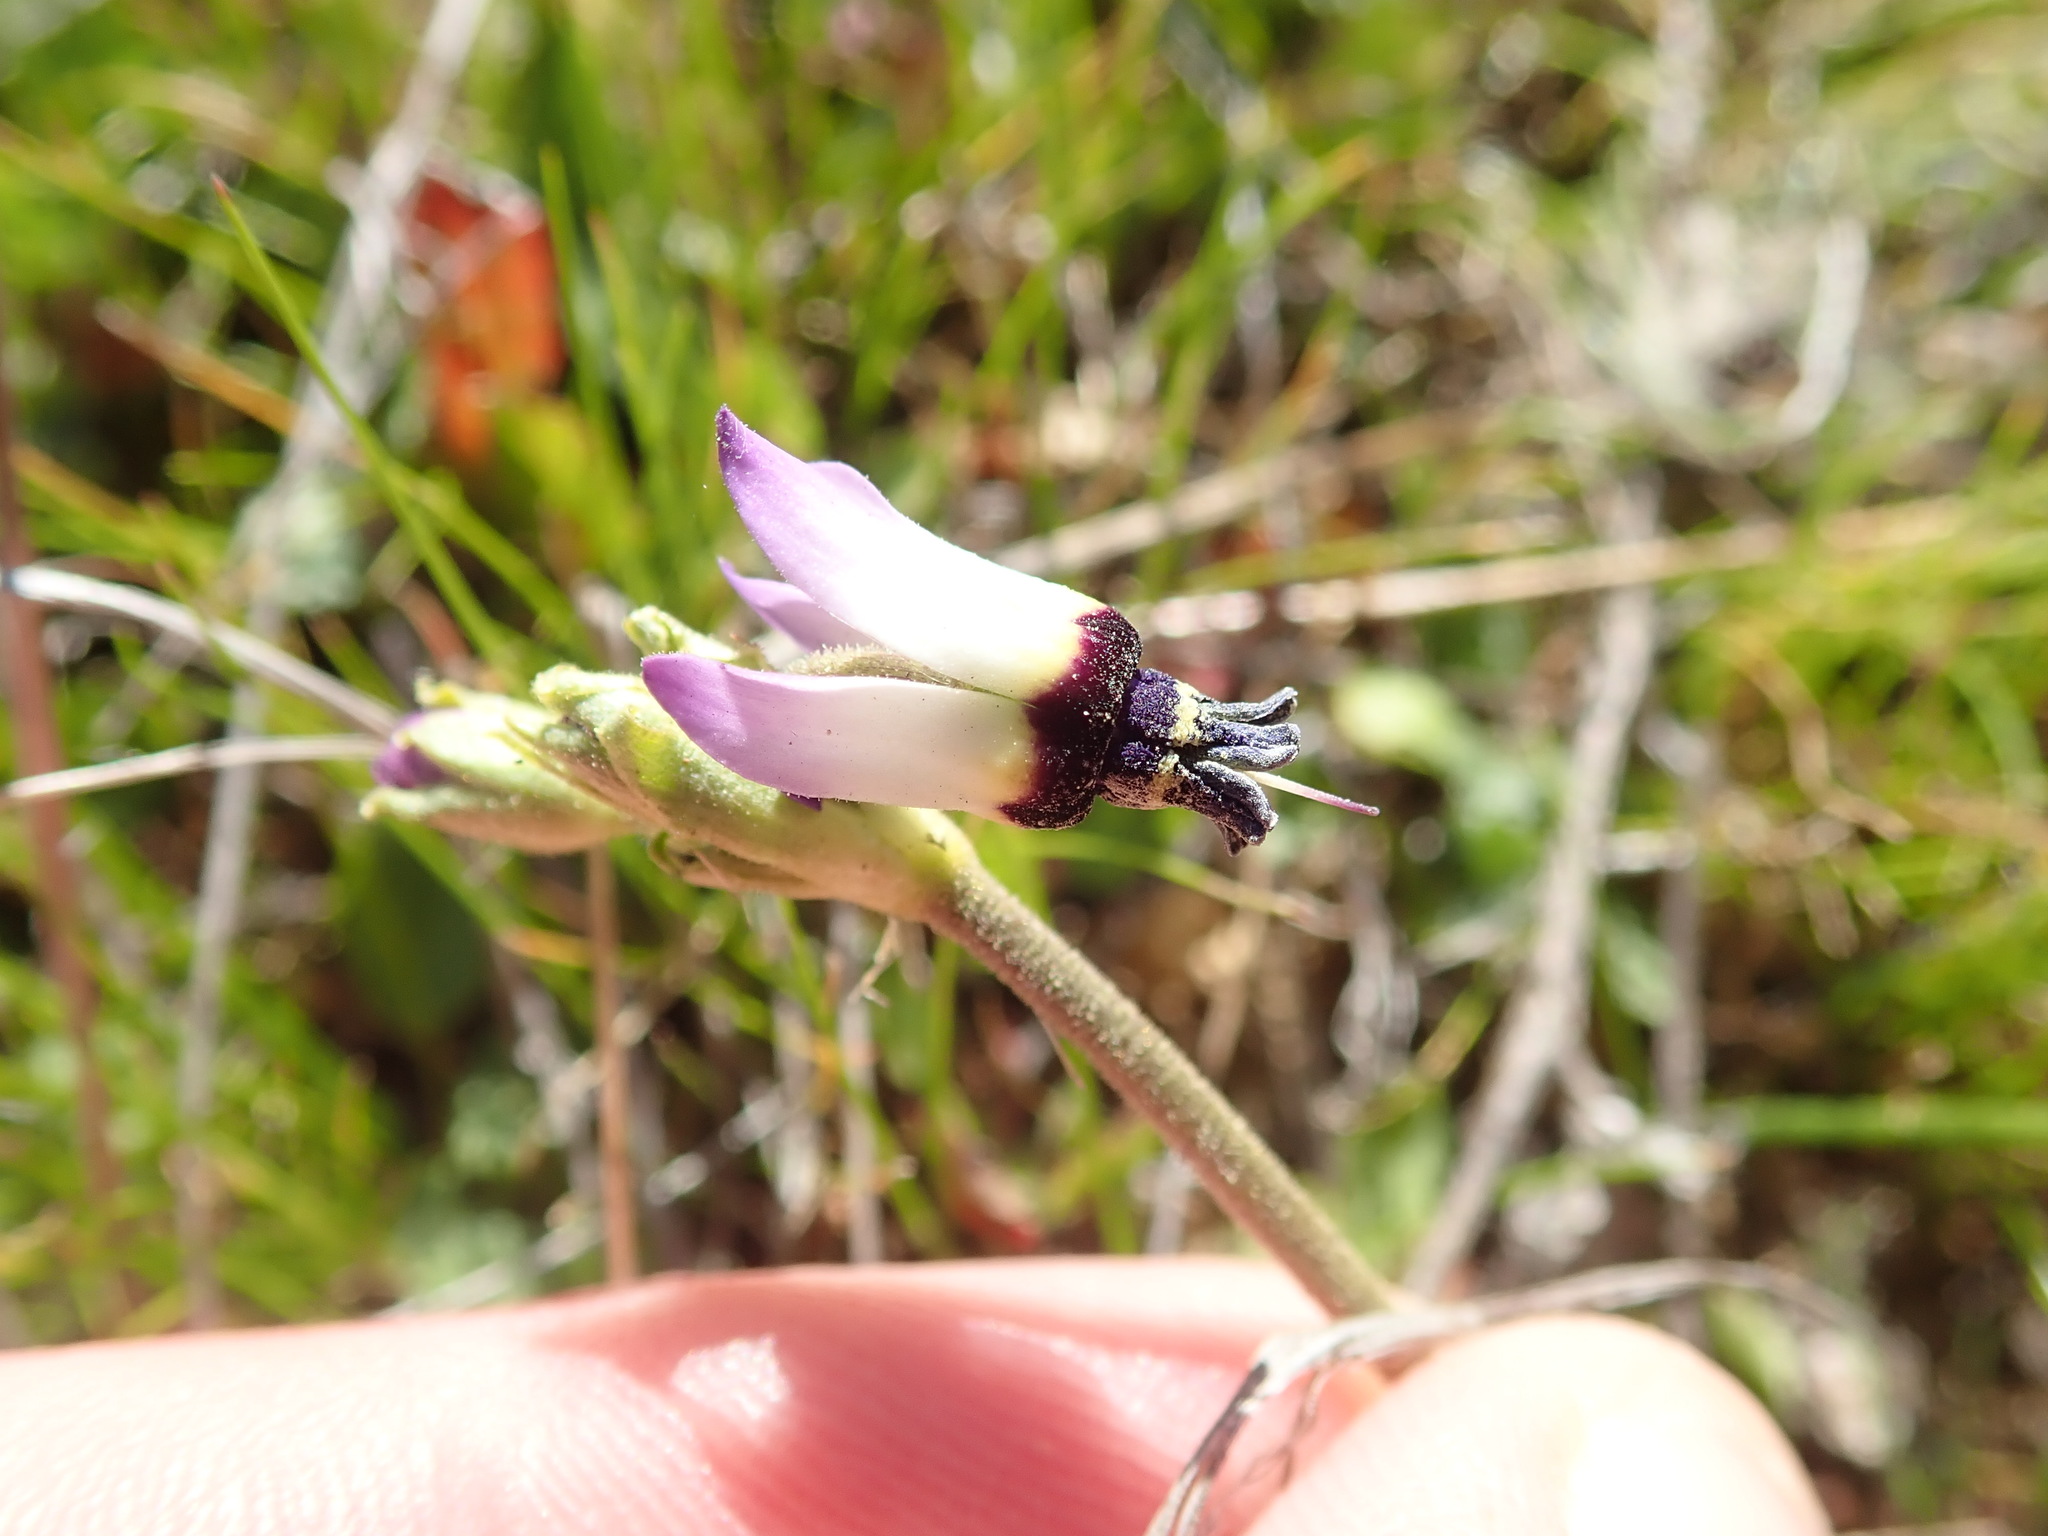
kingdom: Plantae
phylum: Tracheophyta
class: Magnoliopsida
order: Ericales
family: Primulaceae
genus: Dodecatheon
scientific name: Dodecatheon clevelandii
